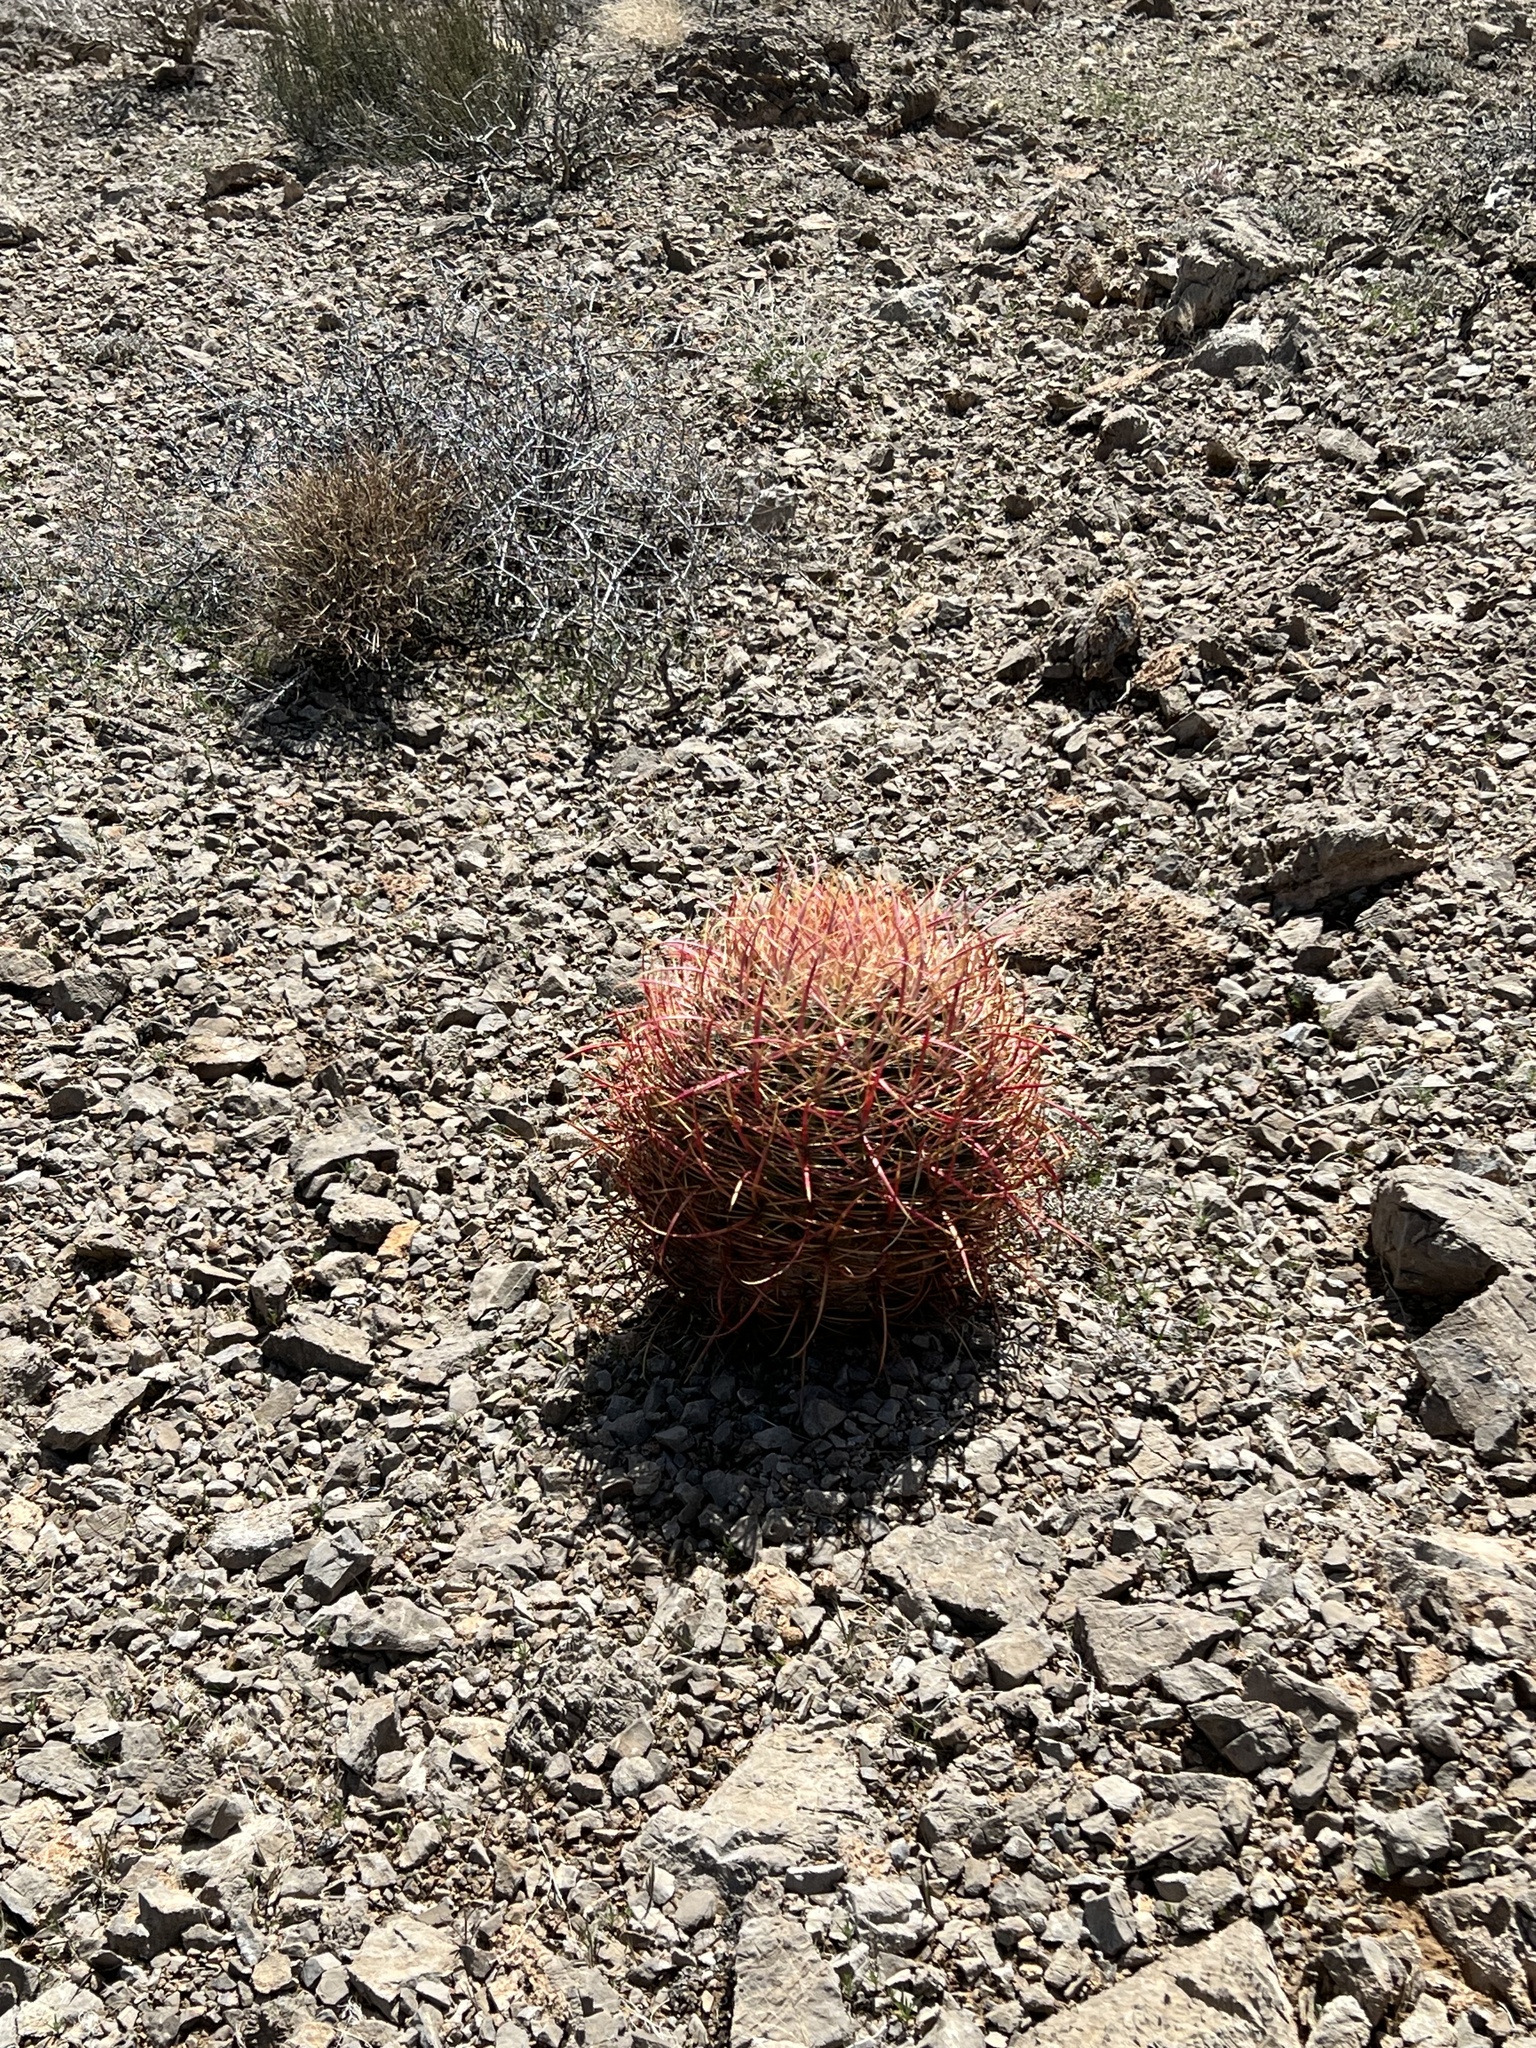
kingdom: Plantae
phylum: Tracheophyta
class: Magnoliopsida
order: Caryophyllales
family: Cactaceae
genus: Ferocactus
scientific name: Ferocactus cylindraceus
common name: California barrel cactus
